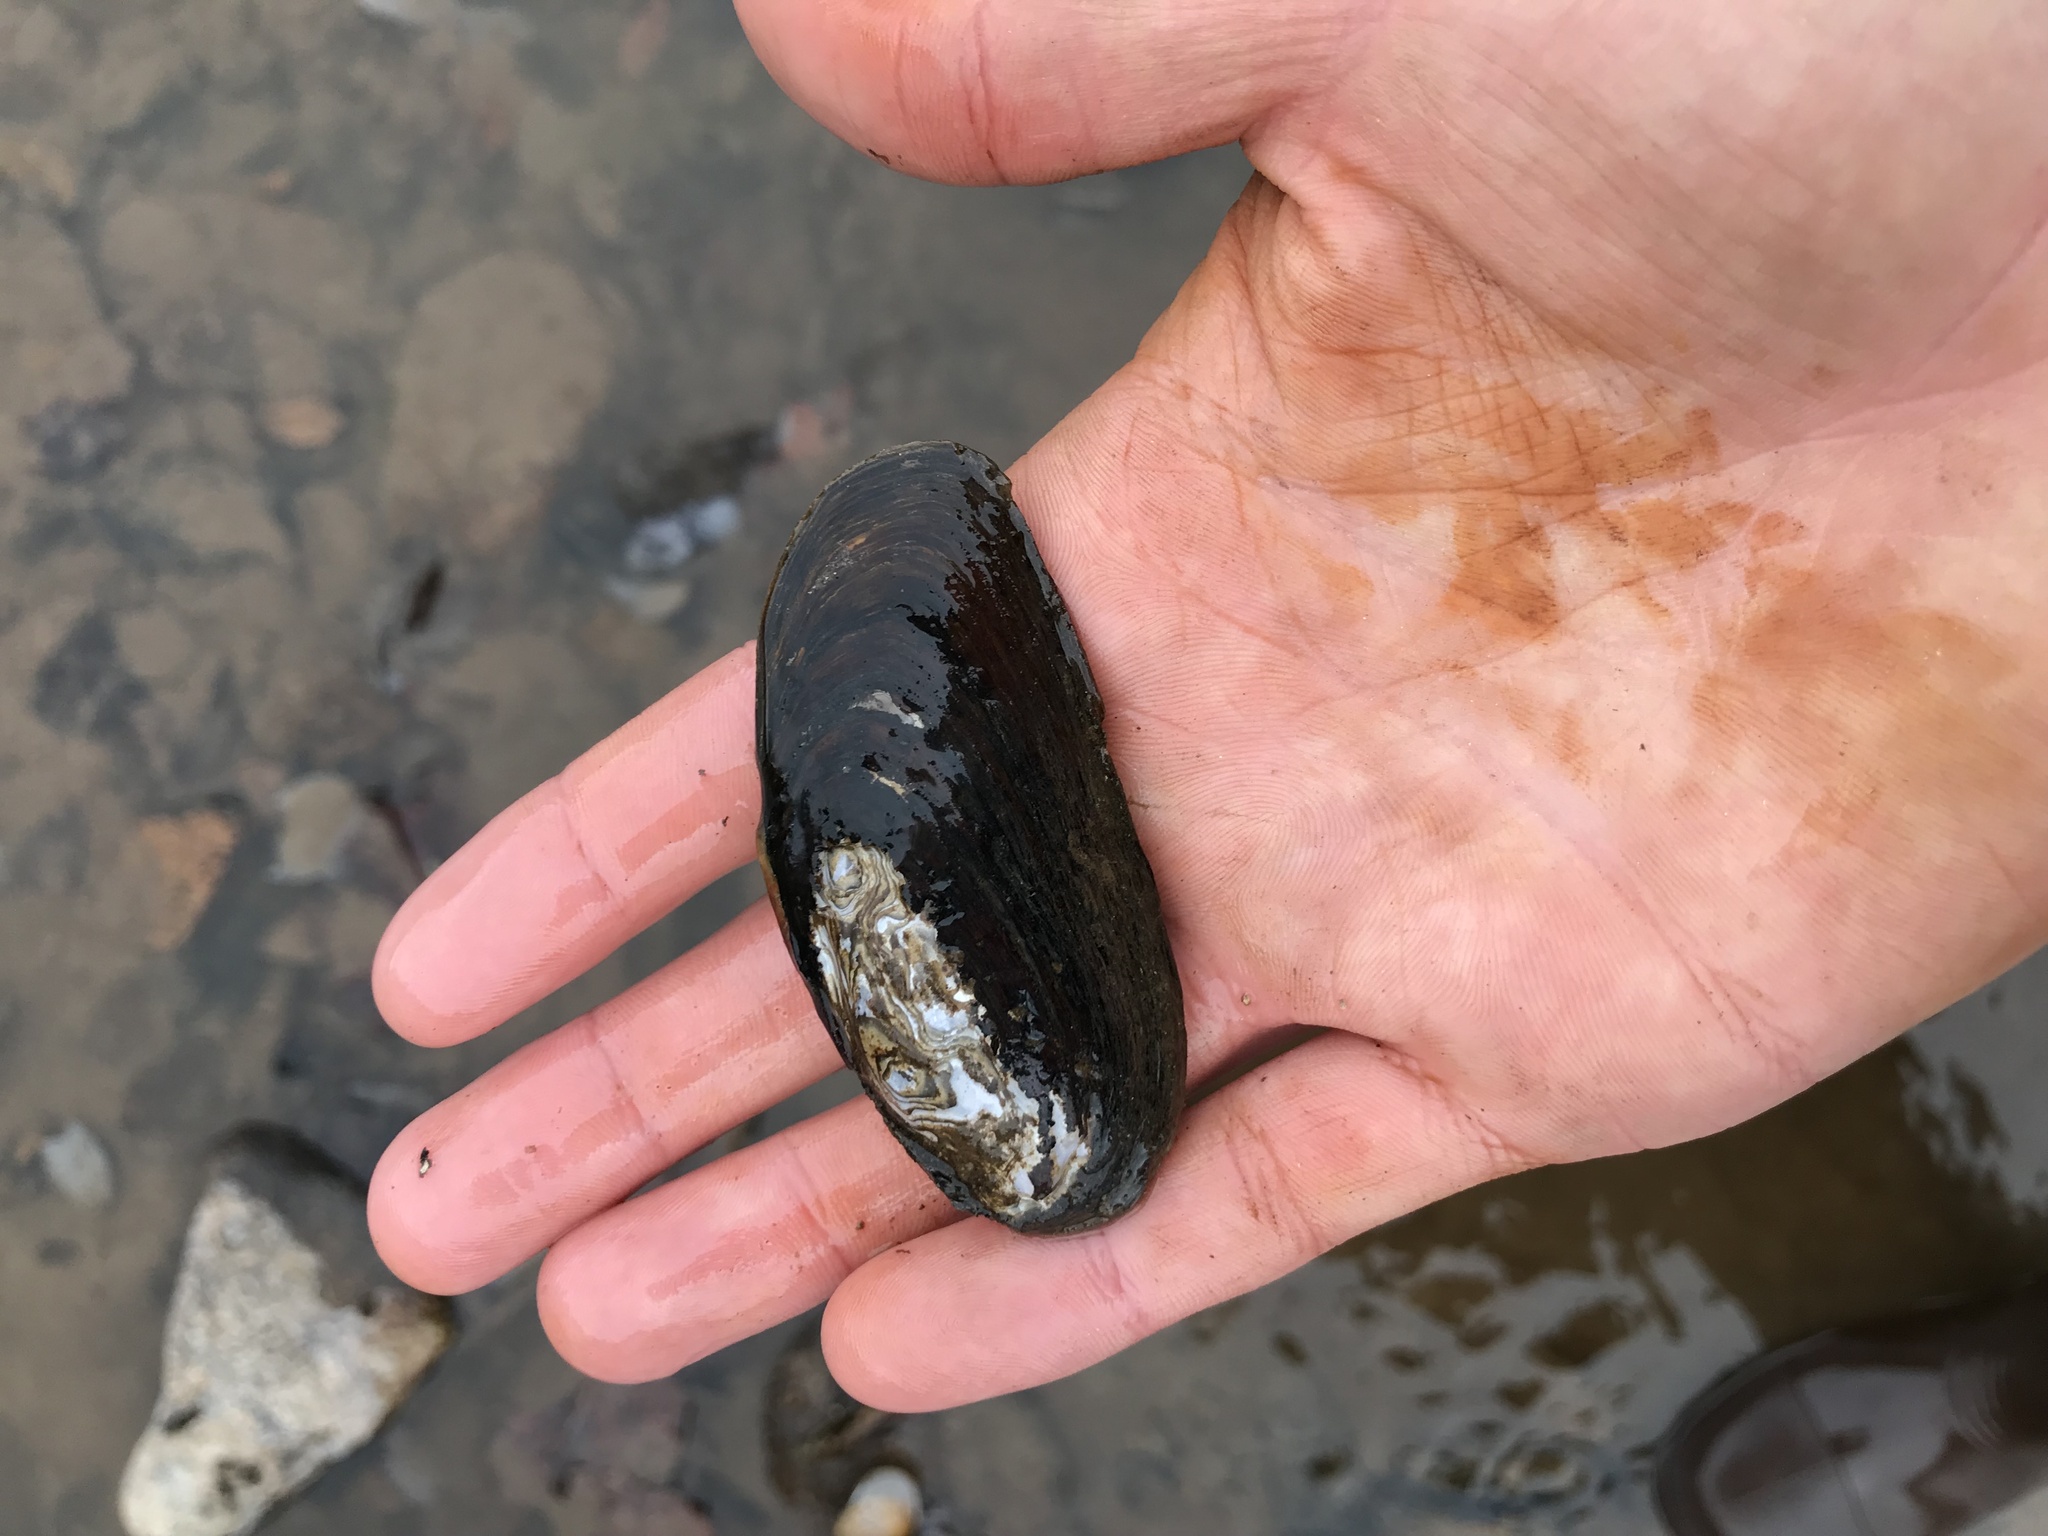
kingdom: Animalia
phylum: Mollusca
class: Bivalvia
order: Unionida
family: Unionidae
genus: Eurynia
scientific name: Eurynia dilatata
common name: Spike
